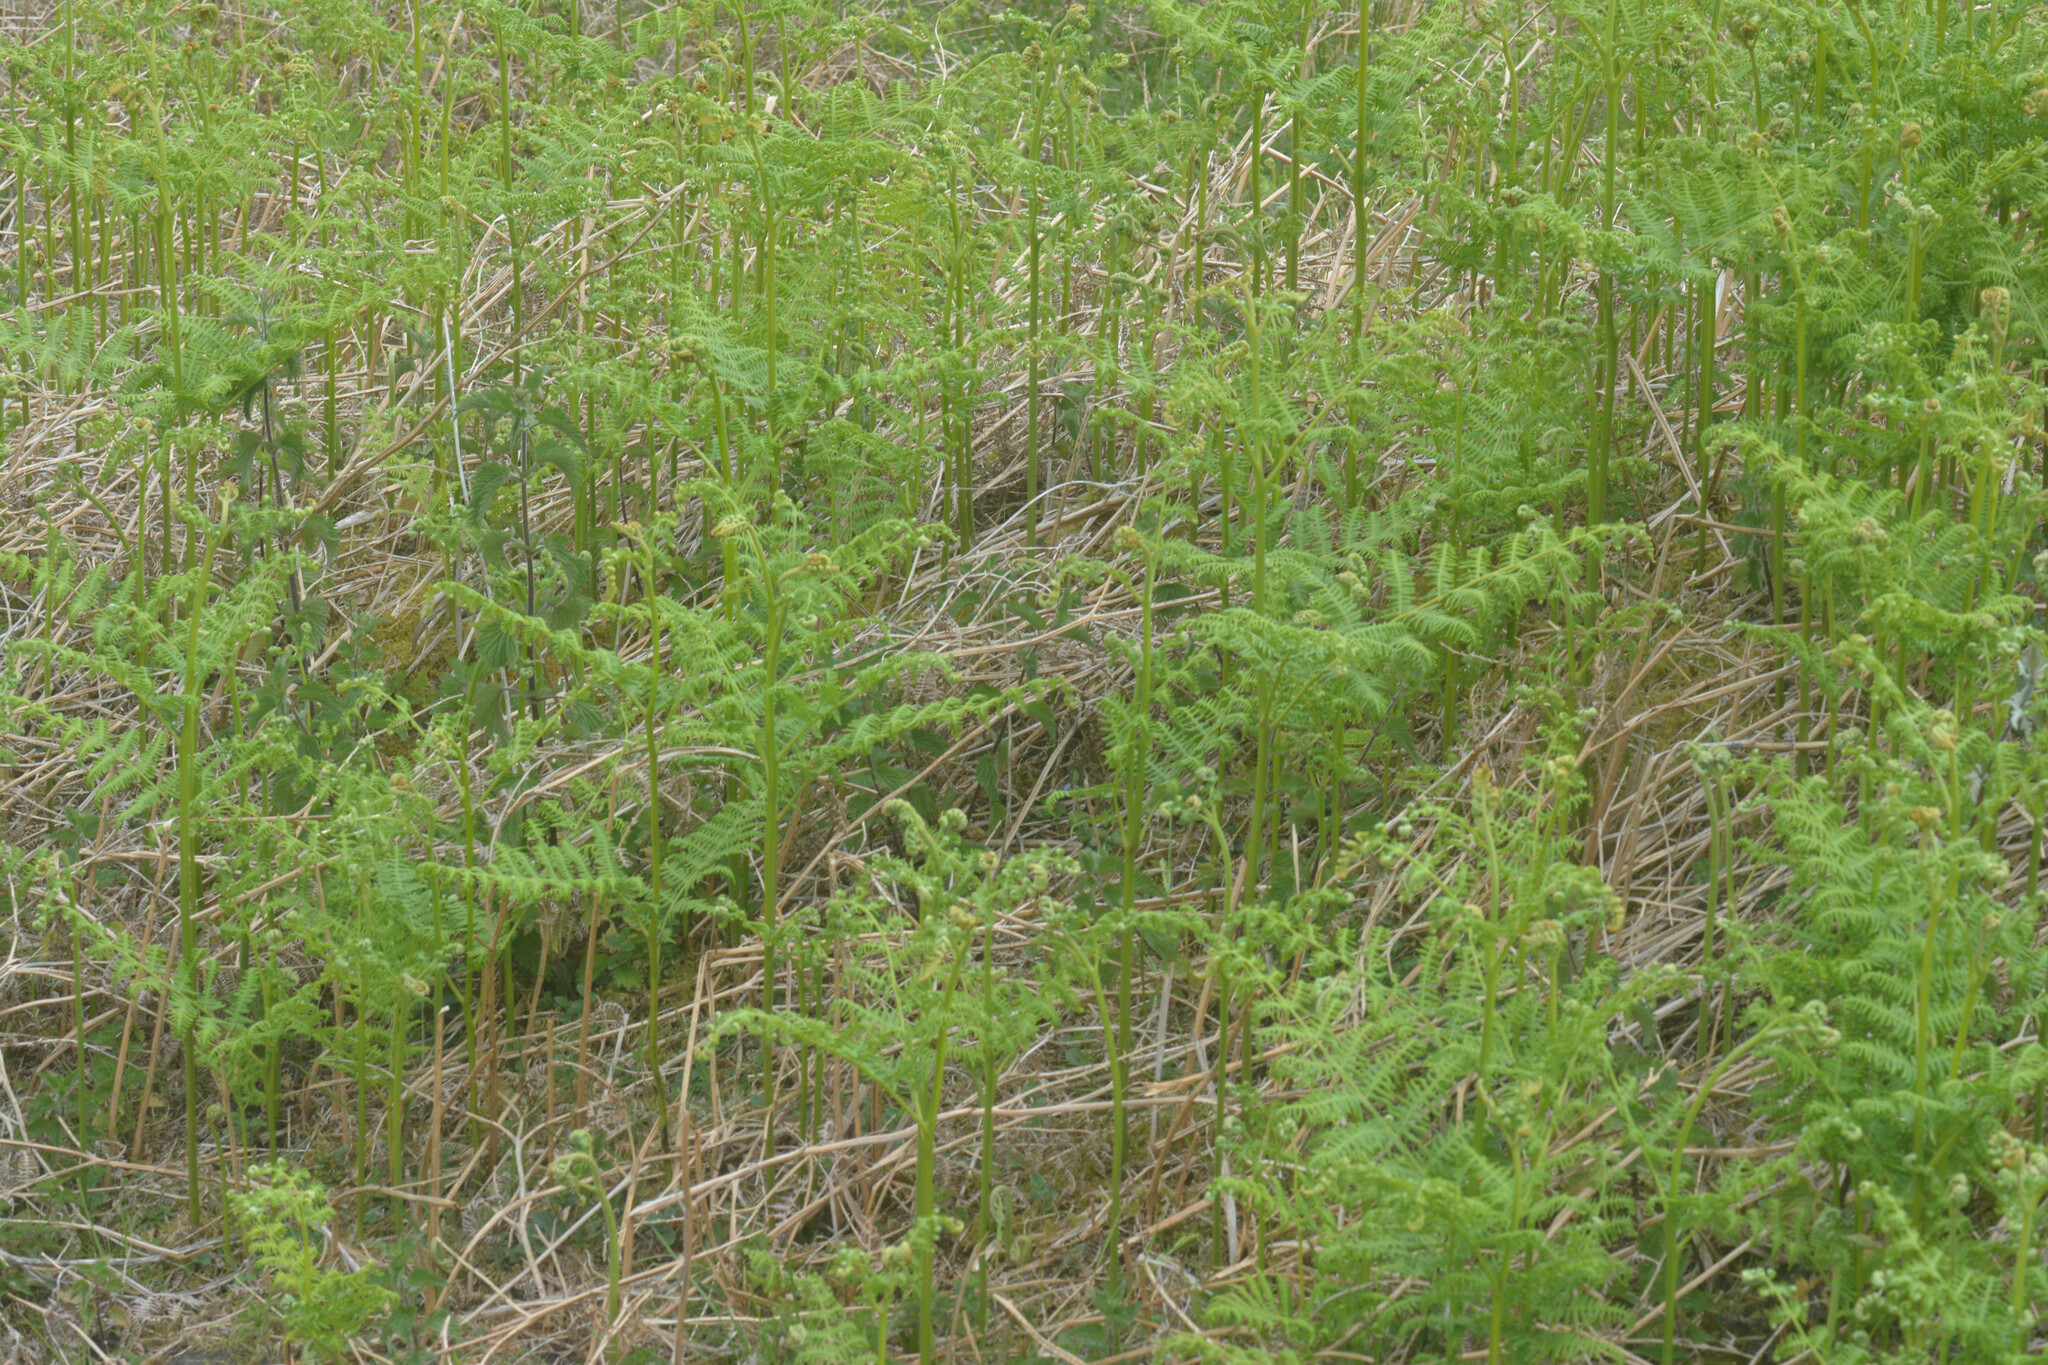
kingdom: Plantae
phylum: Tracheophyta
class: Polypodiopsida
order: Polypodiales
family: Dennstaedtiaceae
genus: Pteridium
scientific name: Pteridium aquilinum
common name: Bracken
